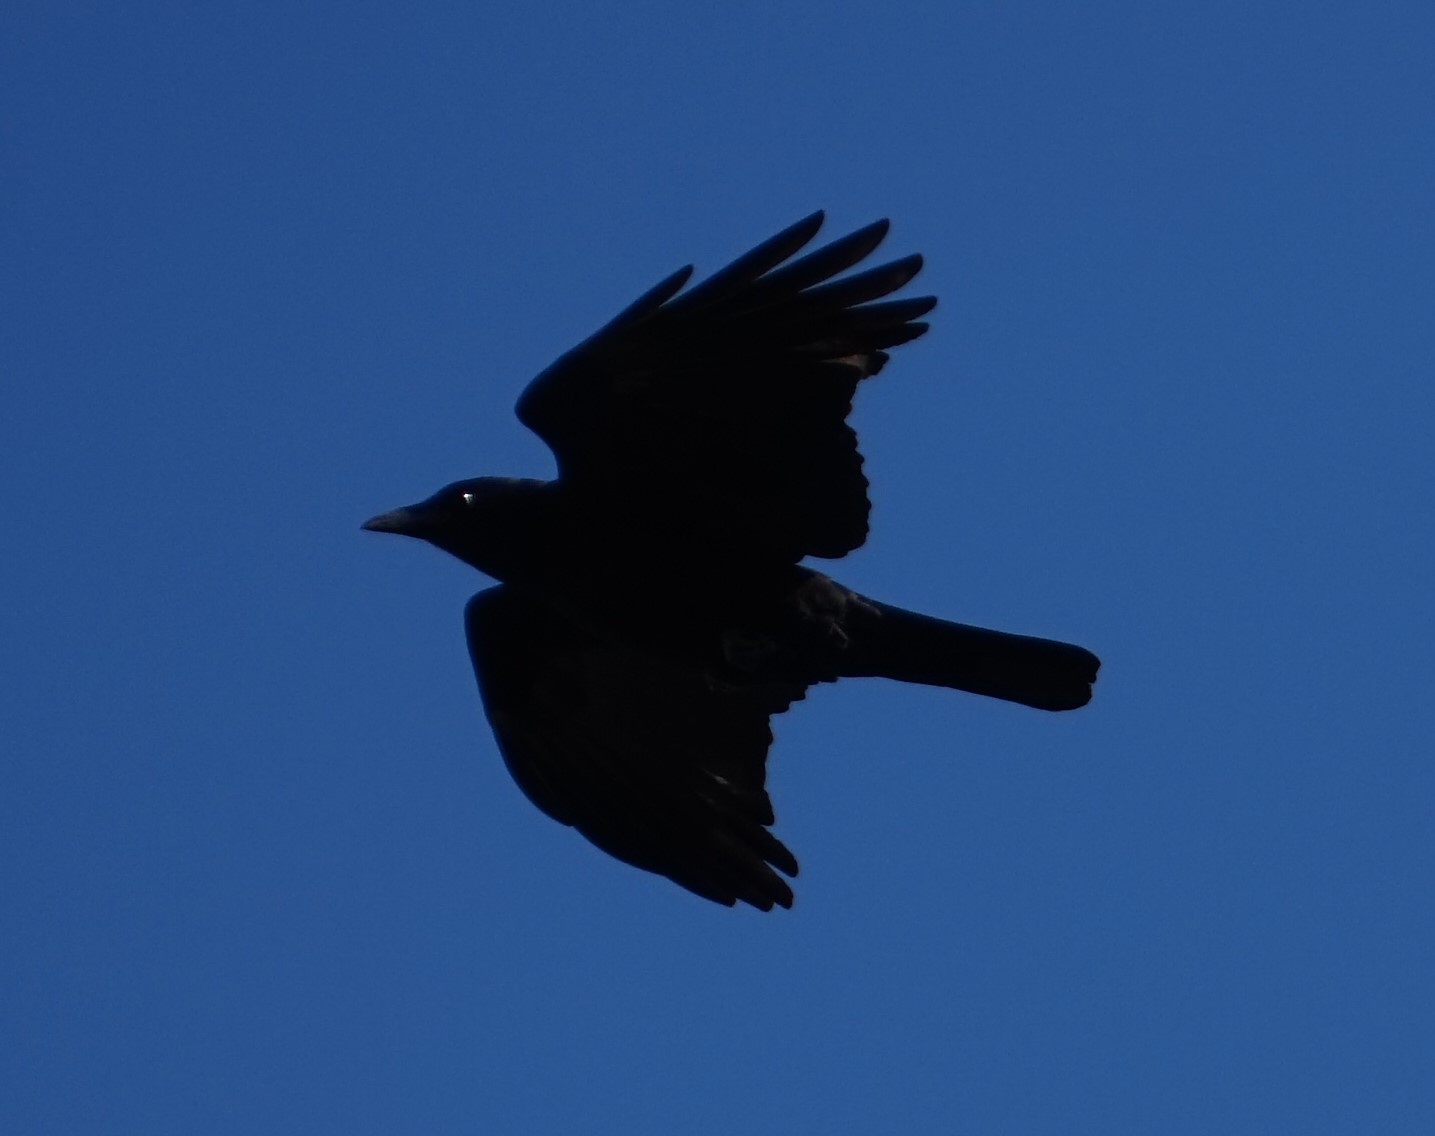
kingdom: Animalia
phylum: Chordata
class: Aves
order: Passeriformes
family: Corvidae
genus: Corvus
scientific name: Corvus brachyrhynchos
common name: American crow
